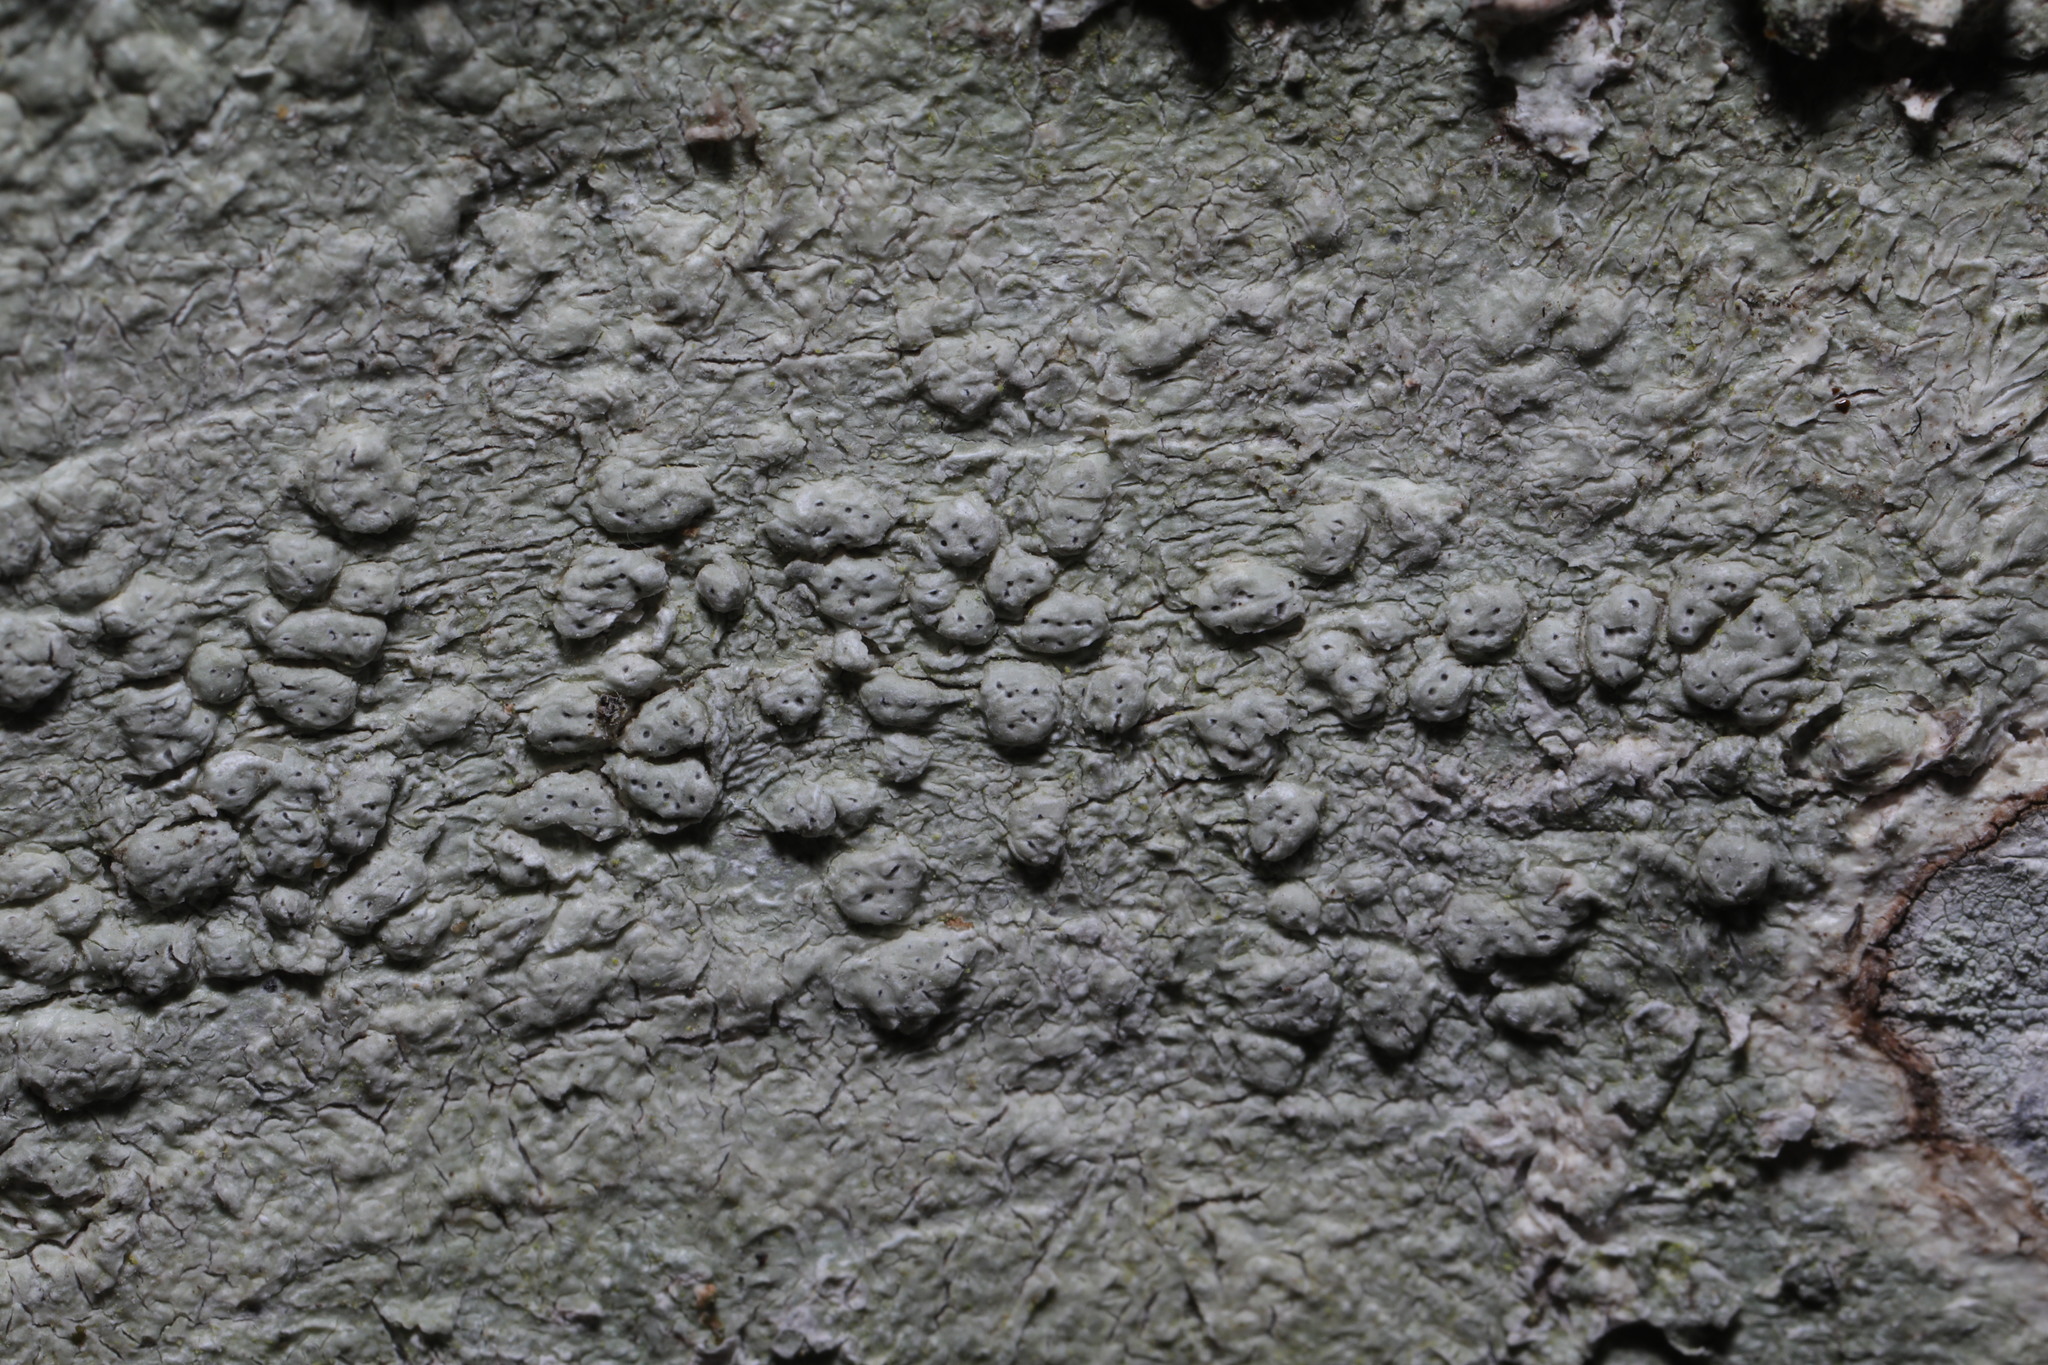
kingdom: Fungi
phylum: Ascomycota
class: Lecanoromycetes
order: Pertusariales
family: Pertusariaceae
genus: Pertusaria
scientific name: Pertusaria pertusa
